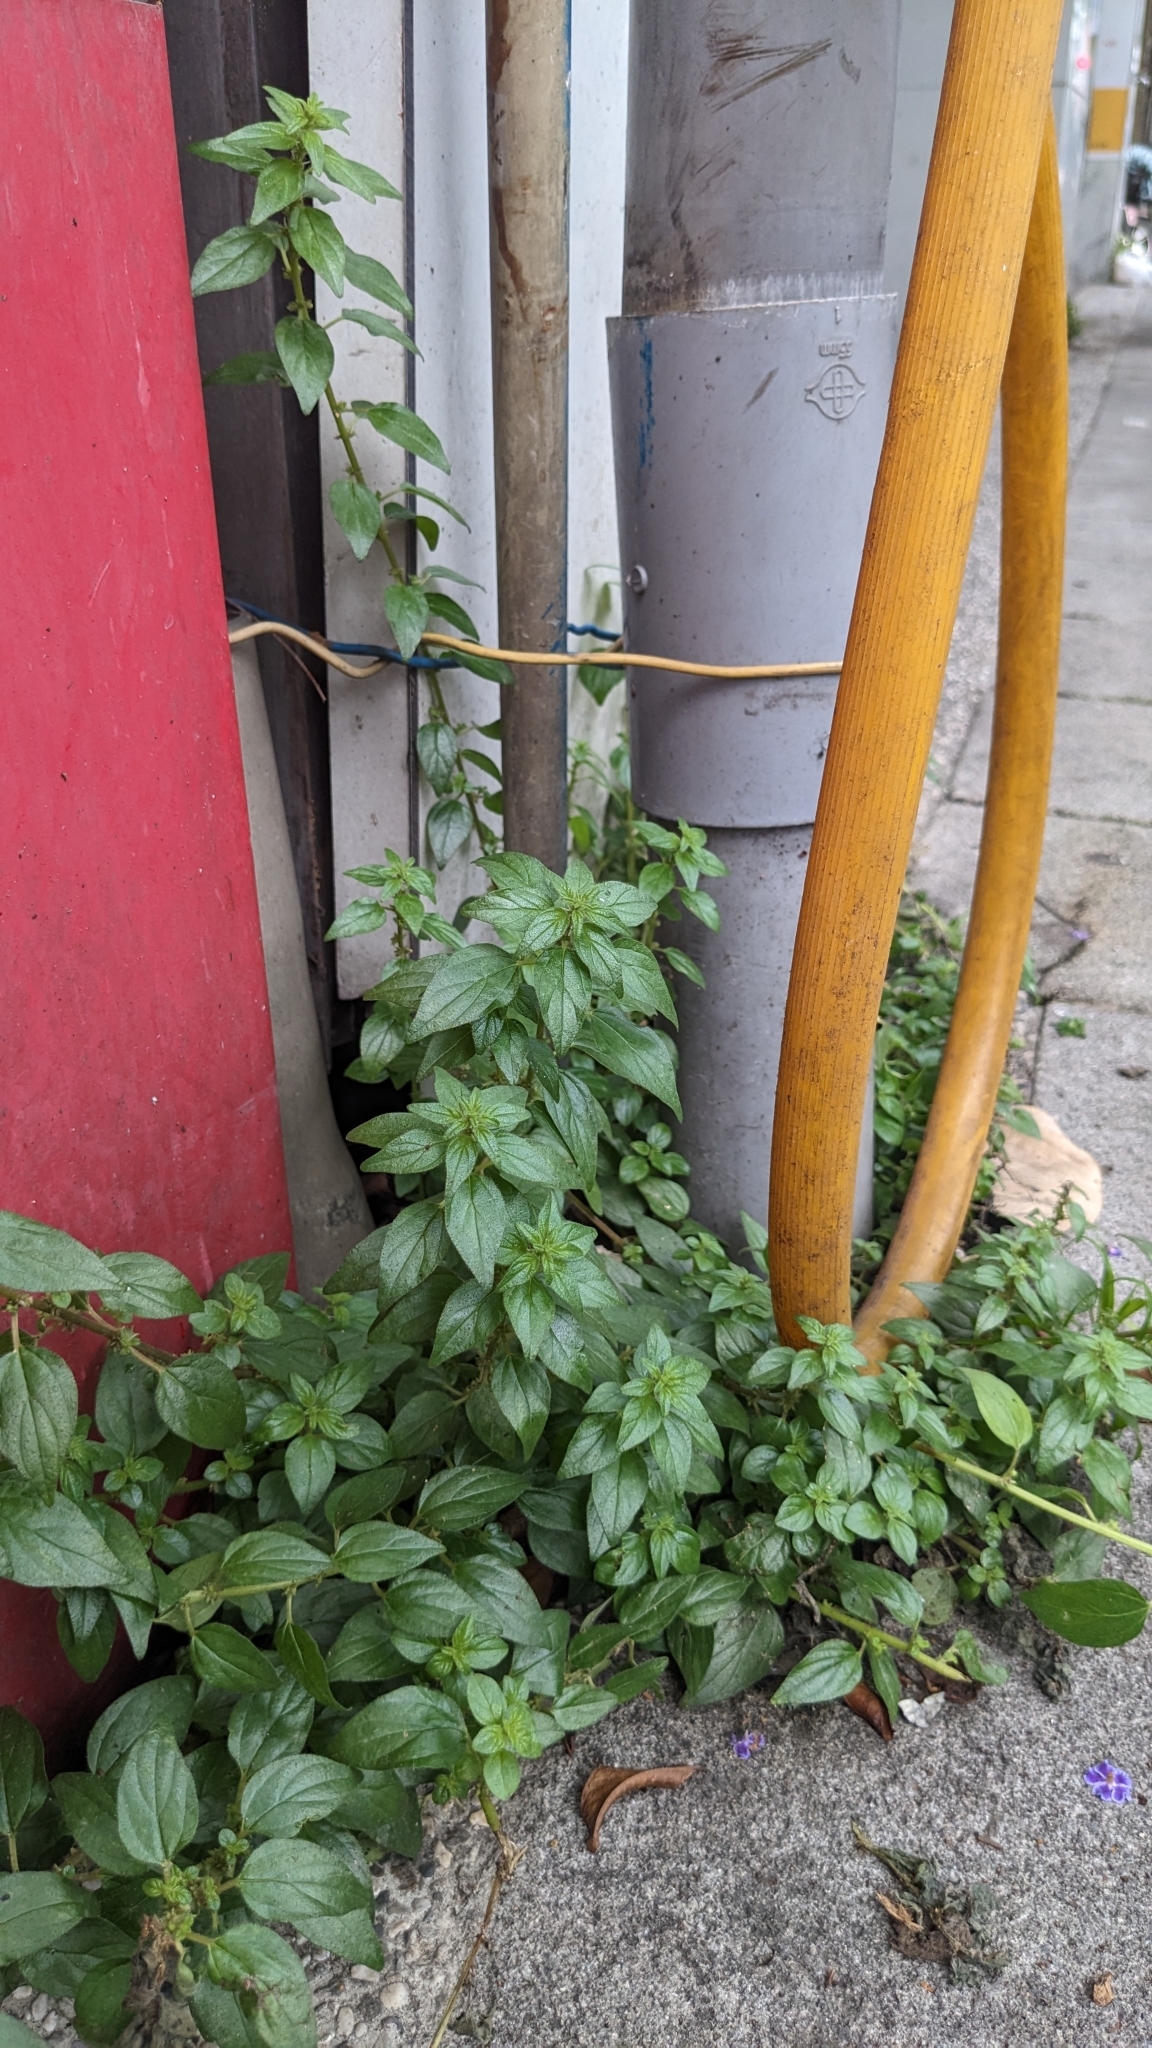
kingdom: Plantae
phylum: Tracheophyta
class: Magnoliopsida
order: Rosales
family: Urticaceae
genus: Pouzolzia
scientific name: Pouzolzia zeylanica
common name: Graceful pouzolzsbush
